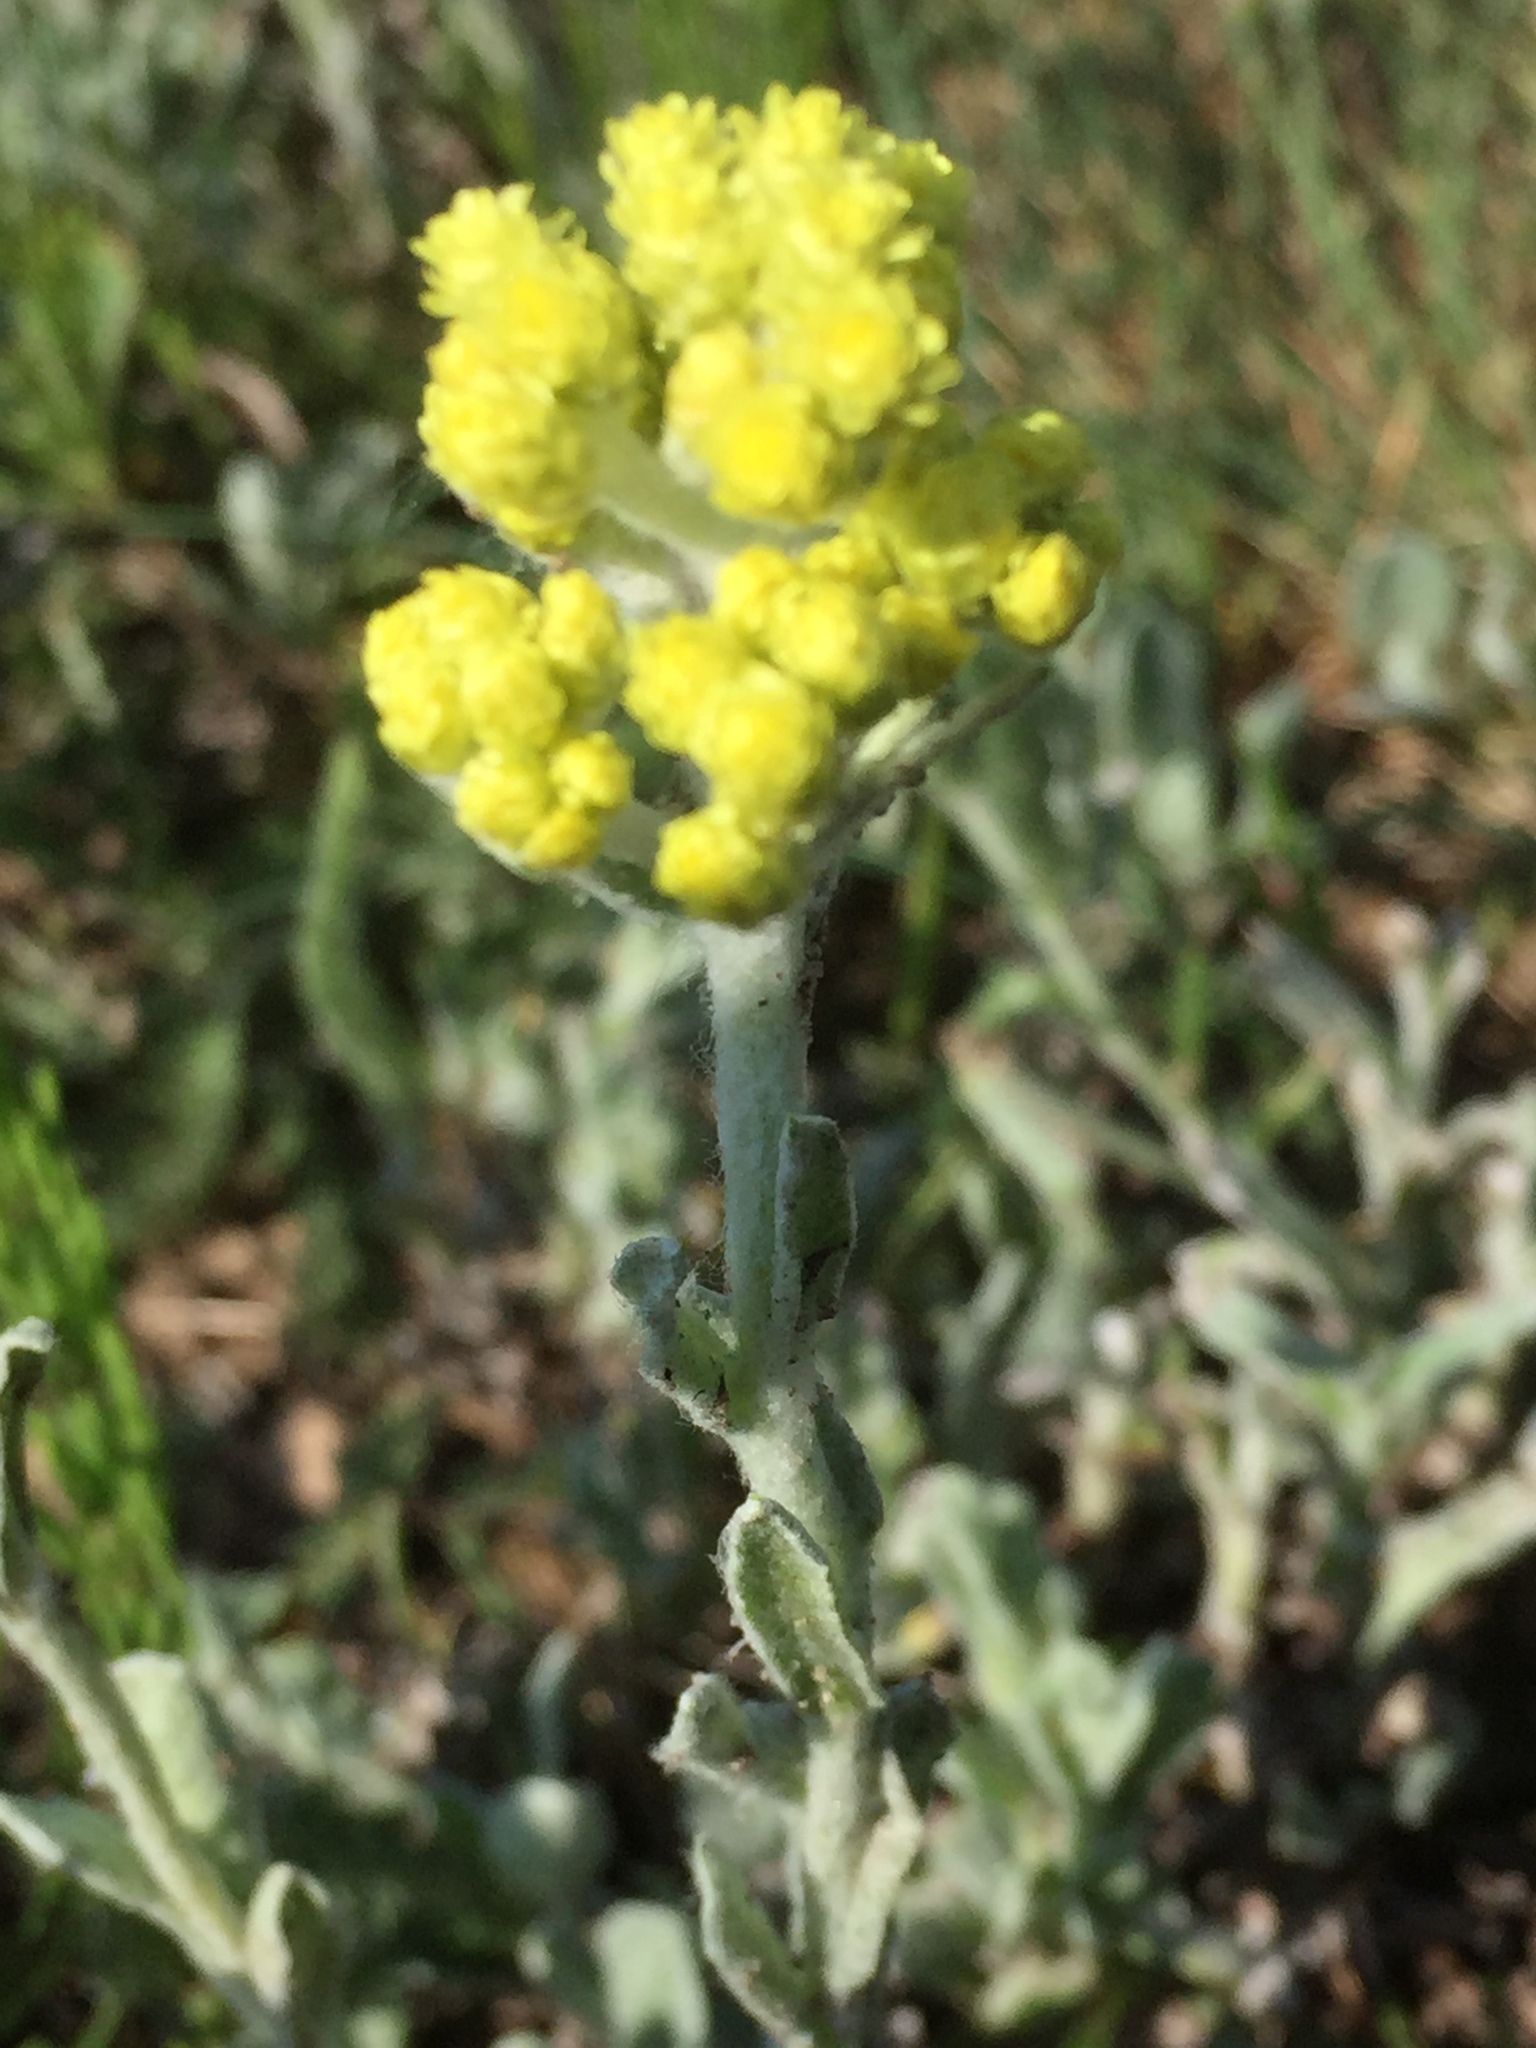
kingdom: Plantae
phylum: Tracheophyta
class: Magnoliopsida
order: Asterales
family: Asteraceae
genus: Helichrysum
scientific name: Helichrysum arenarium
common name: Strawflower
